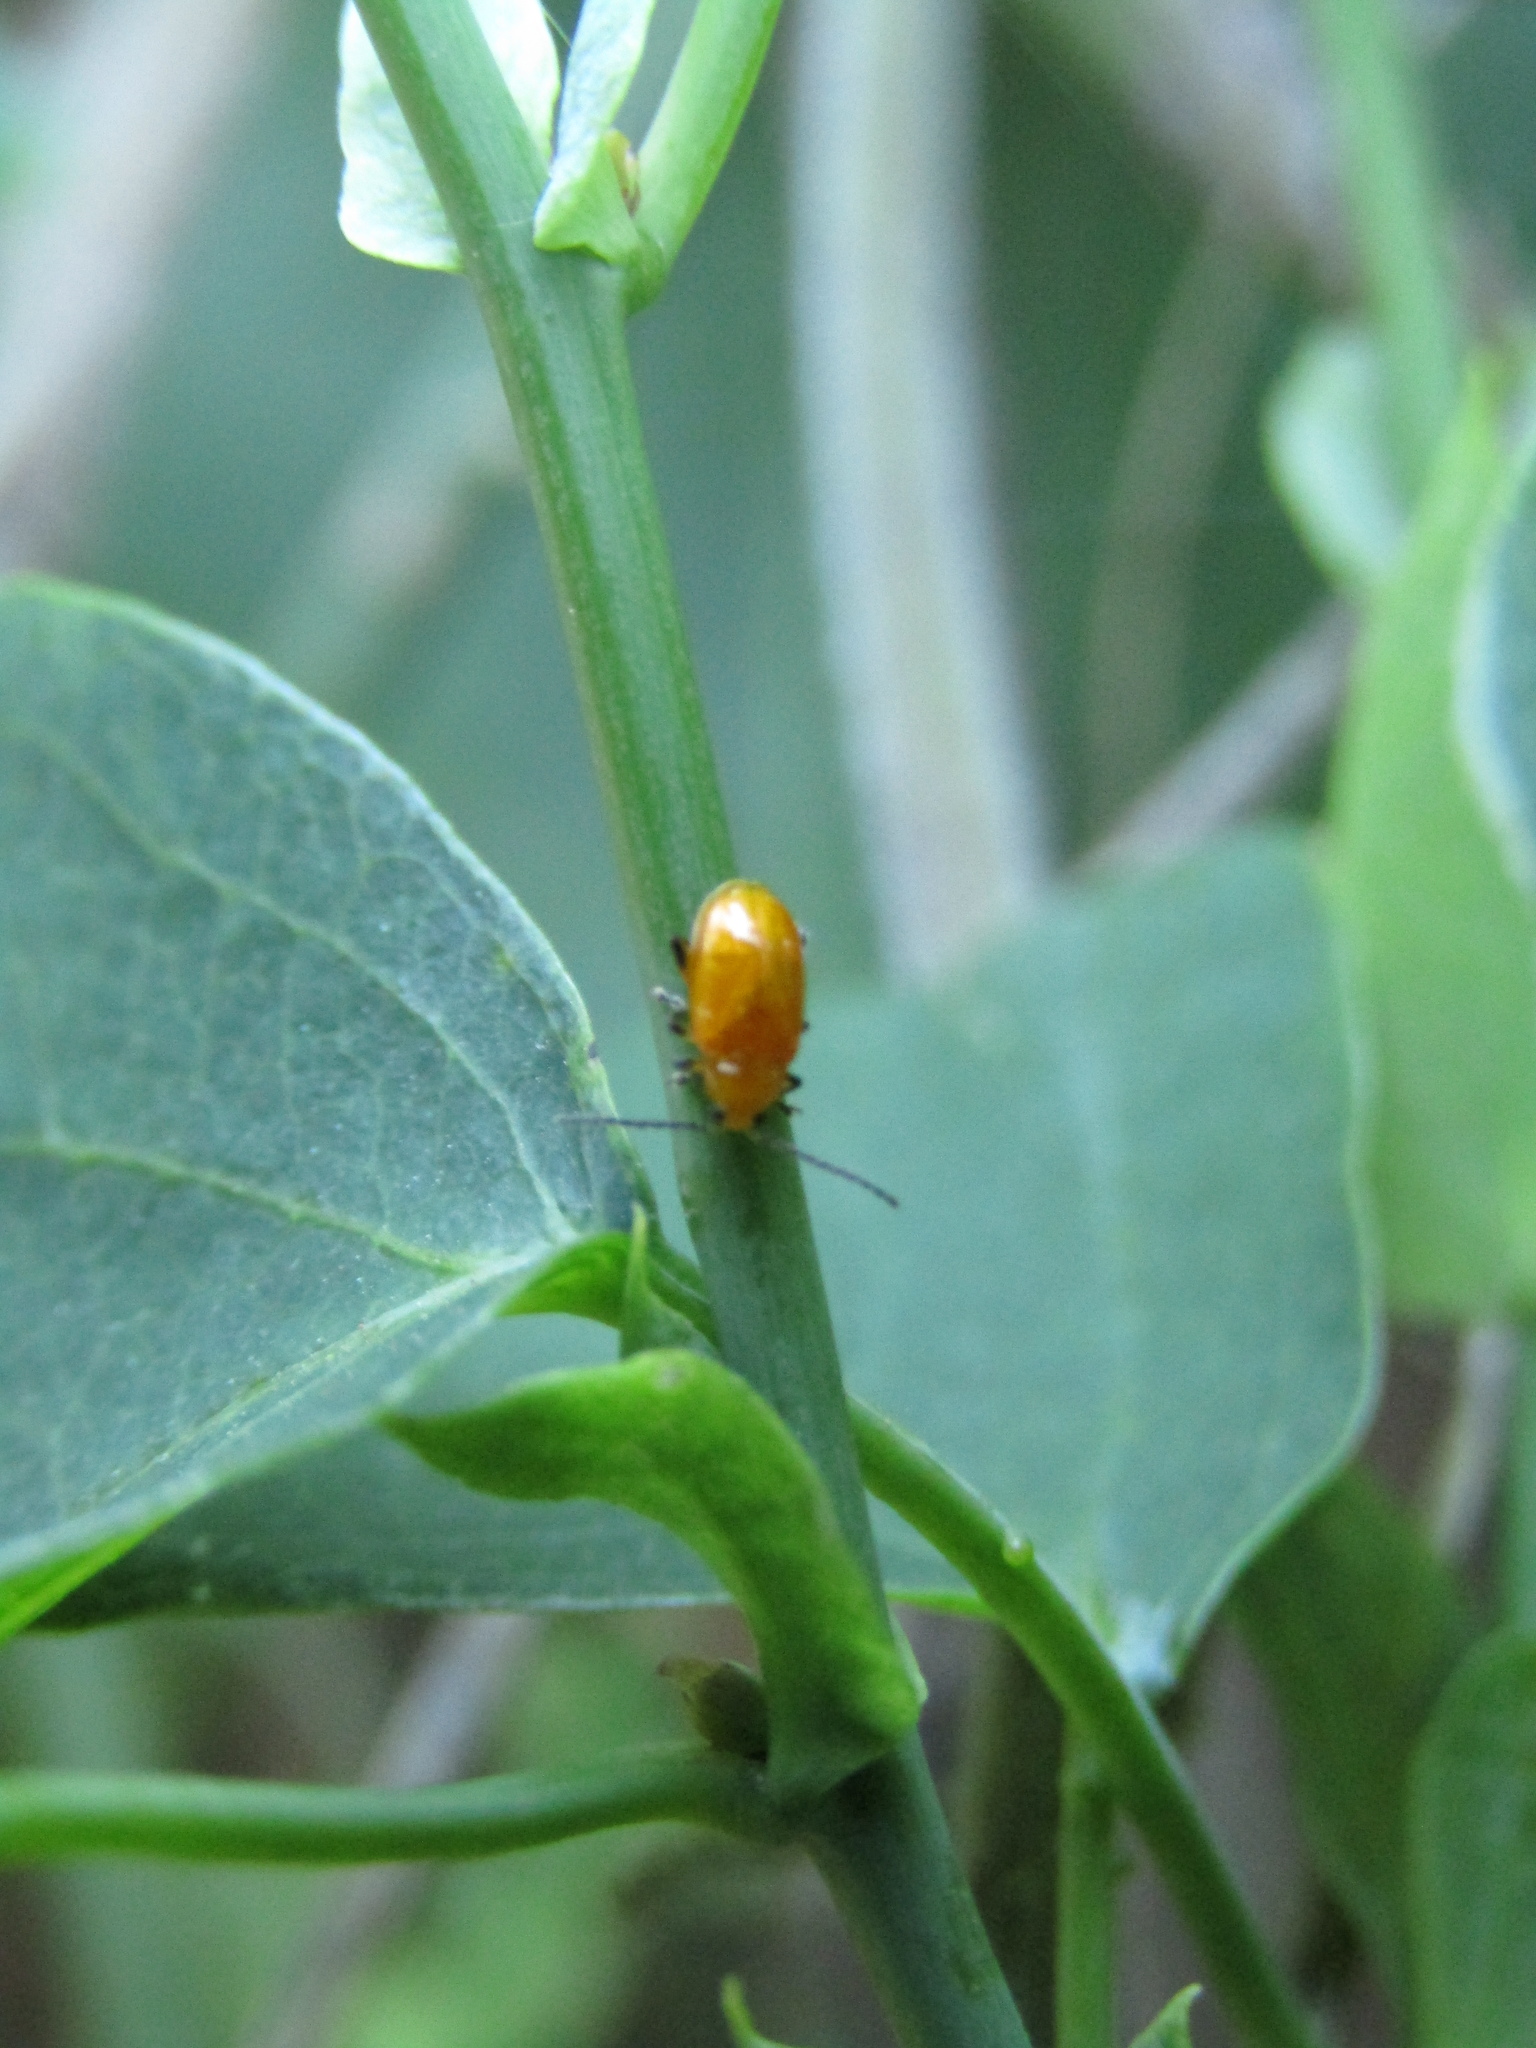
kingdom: Animalia
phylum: Arthropoda
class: Insecta
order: Coleoptera
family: Chrysomelidae
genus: Parchicola
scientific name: Parchicola
